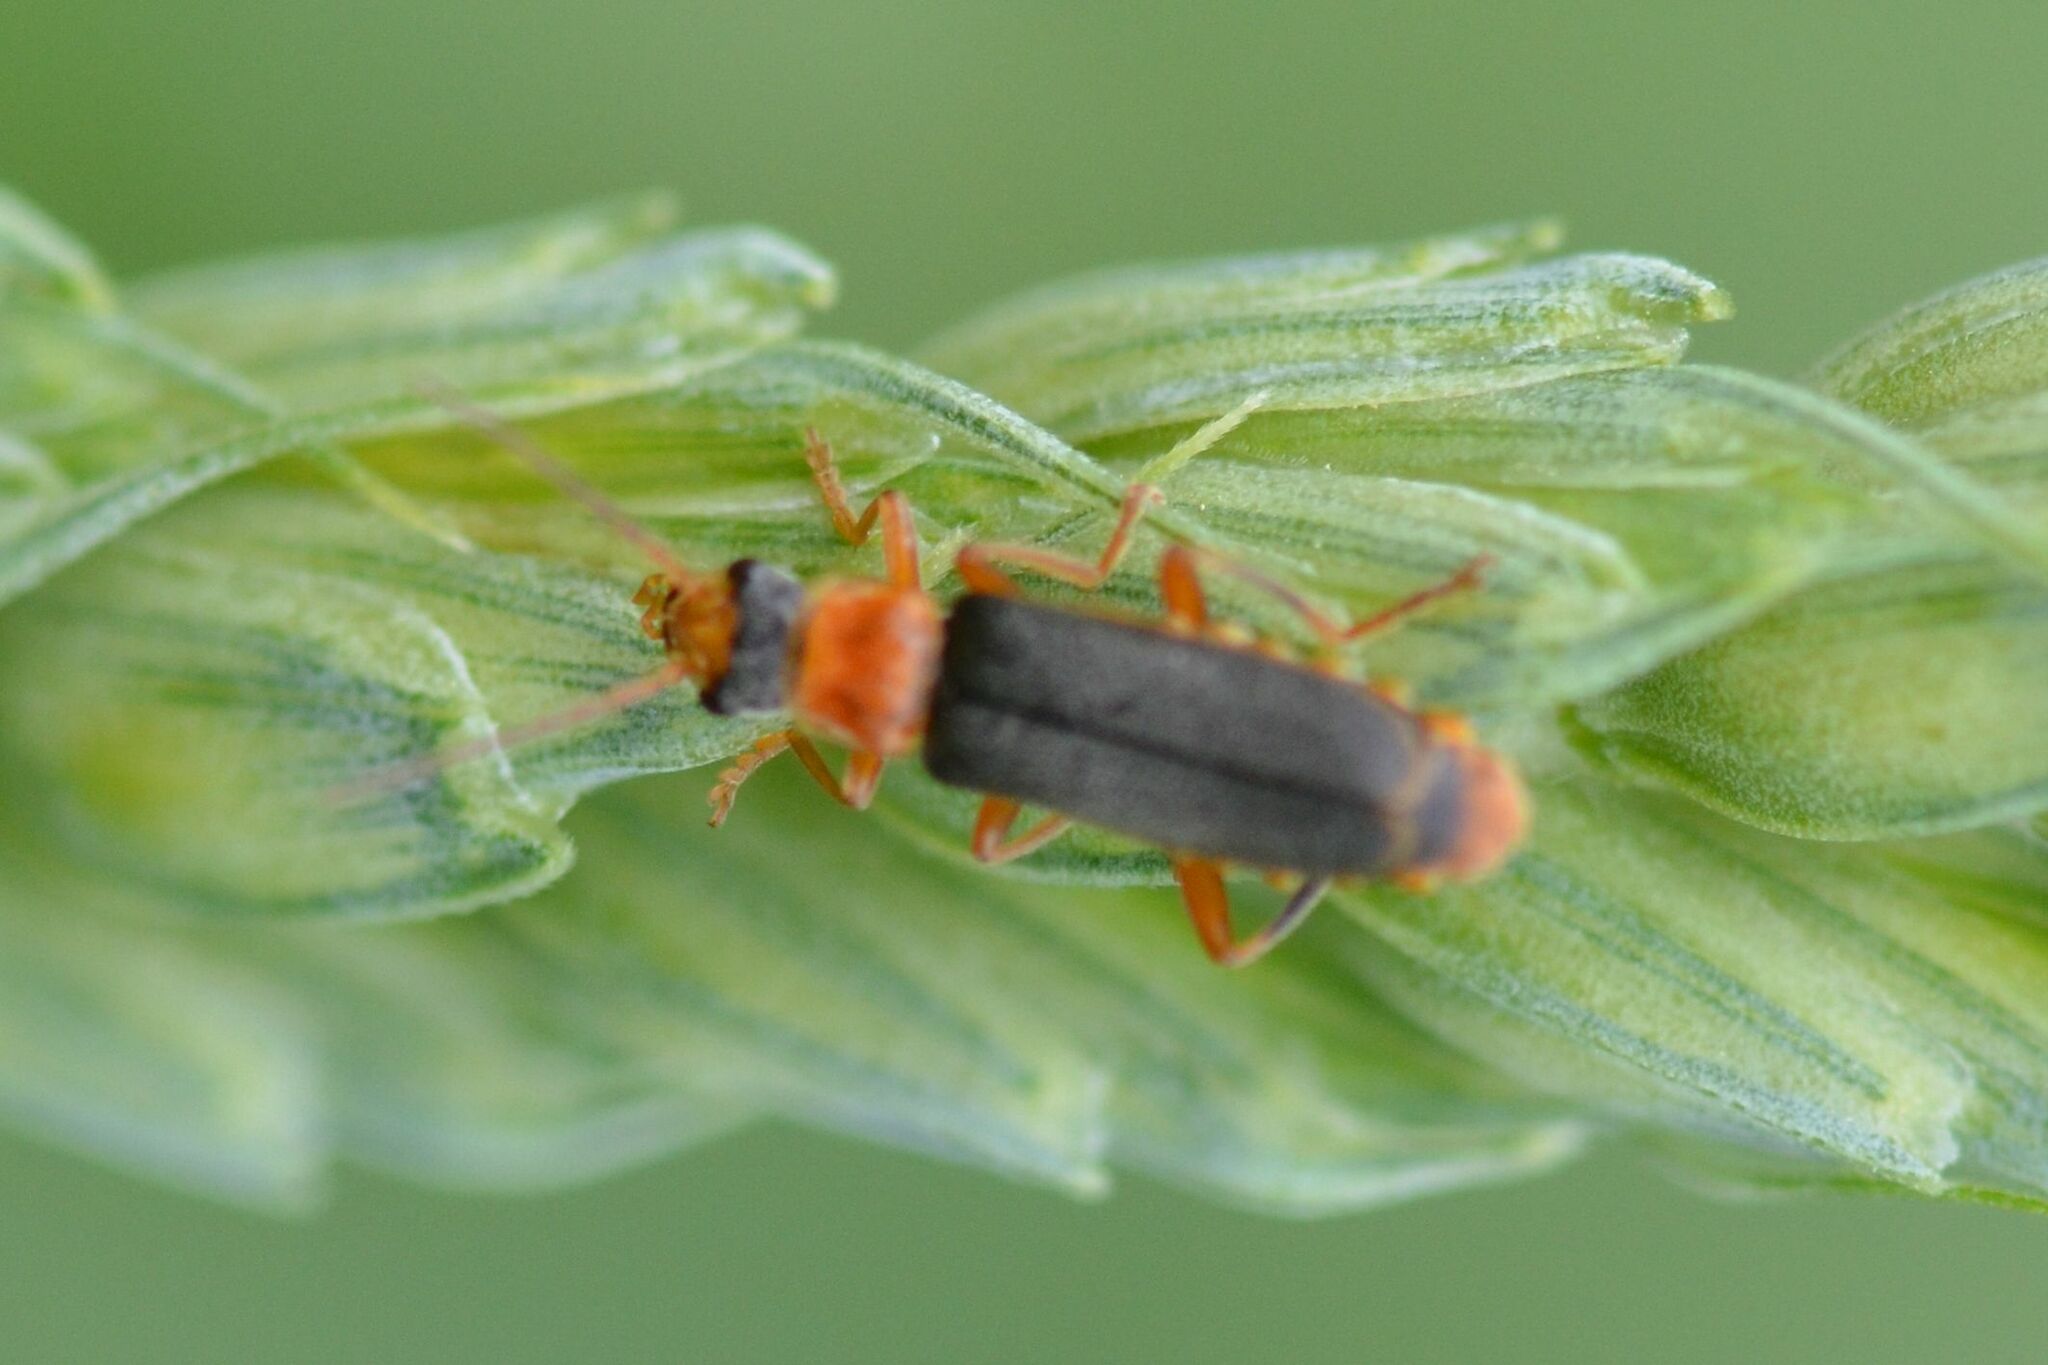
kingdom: Animalia
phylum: Arthropoda
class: Insecta
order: Coleoptera
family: Cantharidae
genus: Cantharis
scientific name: Cantharis lateralis
